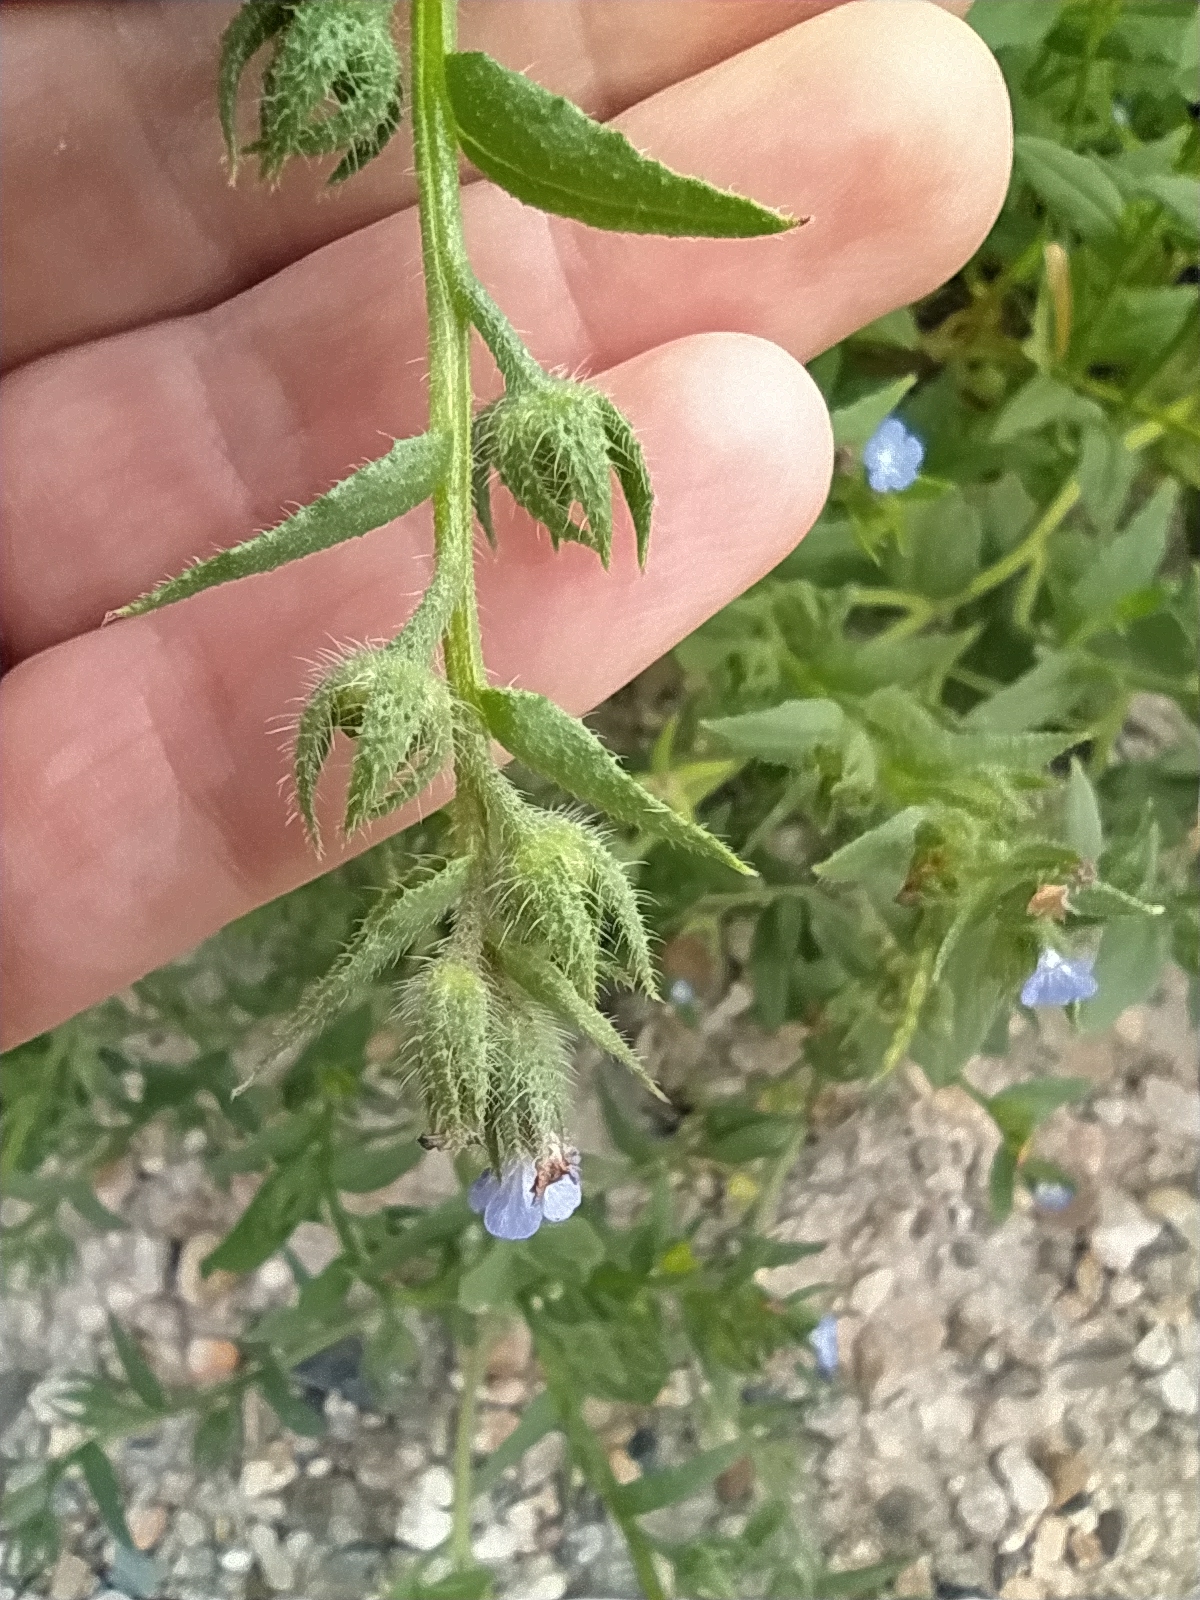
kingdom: Plantae
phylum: Tracheophyta
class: Magnoliopsida
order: Boraginales
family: Boraginaceae
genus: Lycopsis
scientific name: Lycopsis arvensis
